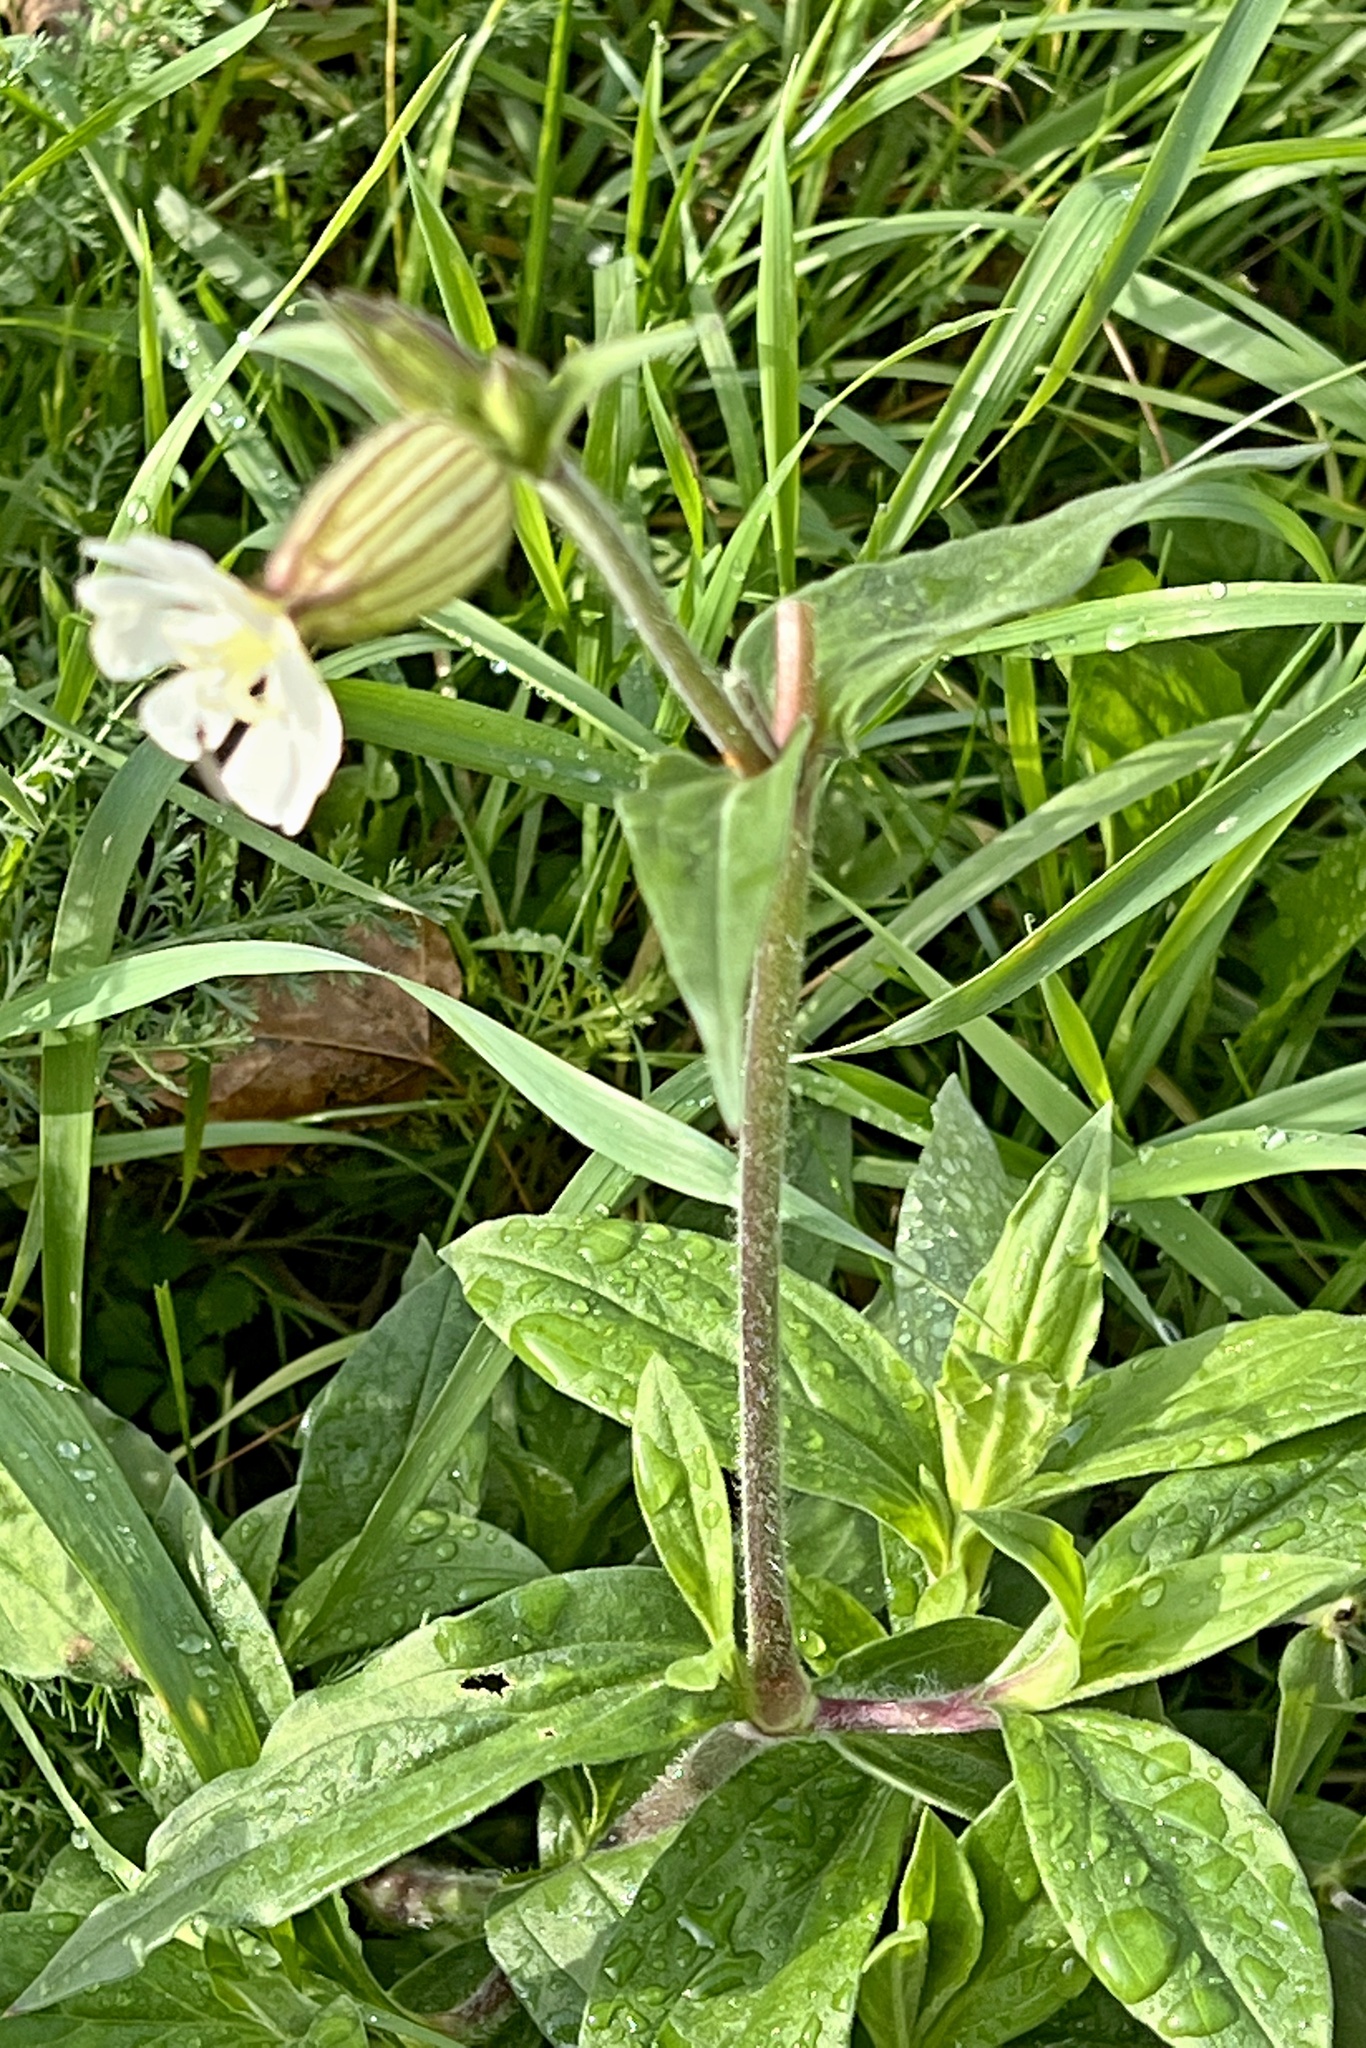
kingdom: Plantae
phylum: Tracheophyta
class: Magnoliopsida
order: Caryophyllales
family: Caryophyllaceae
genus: Silene
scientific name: Silene latifolia
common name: White campion
